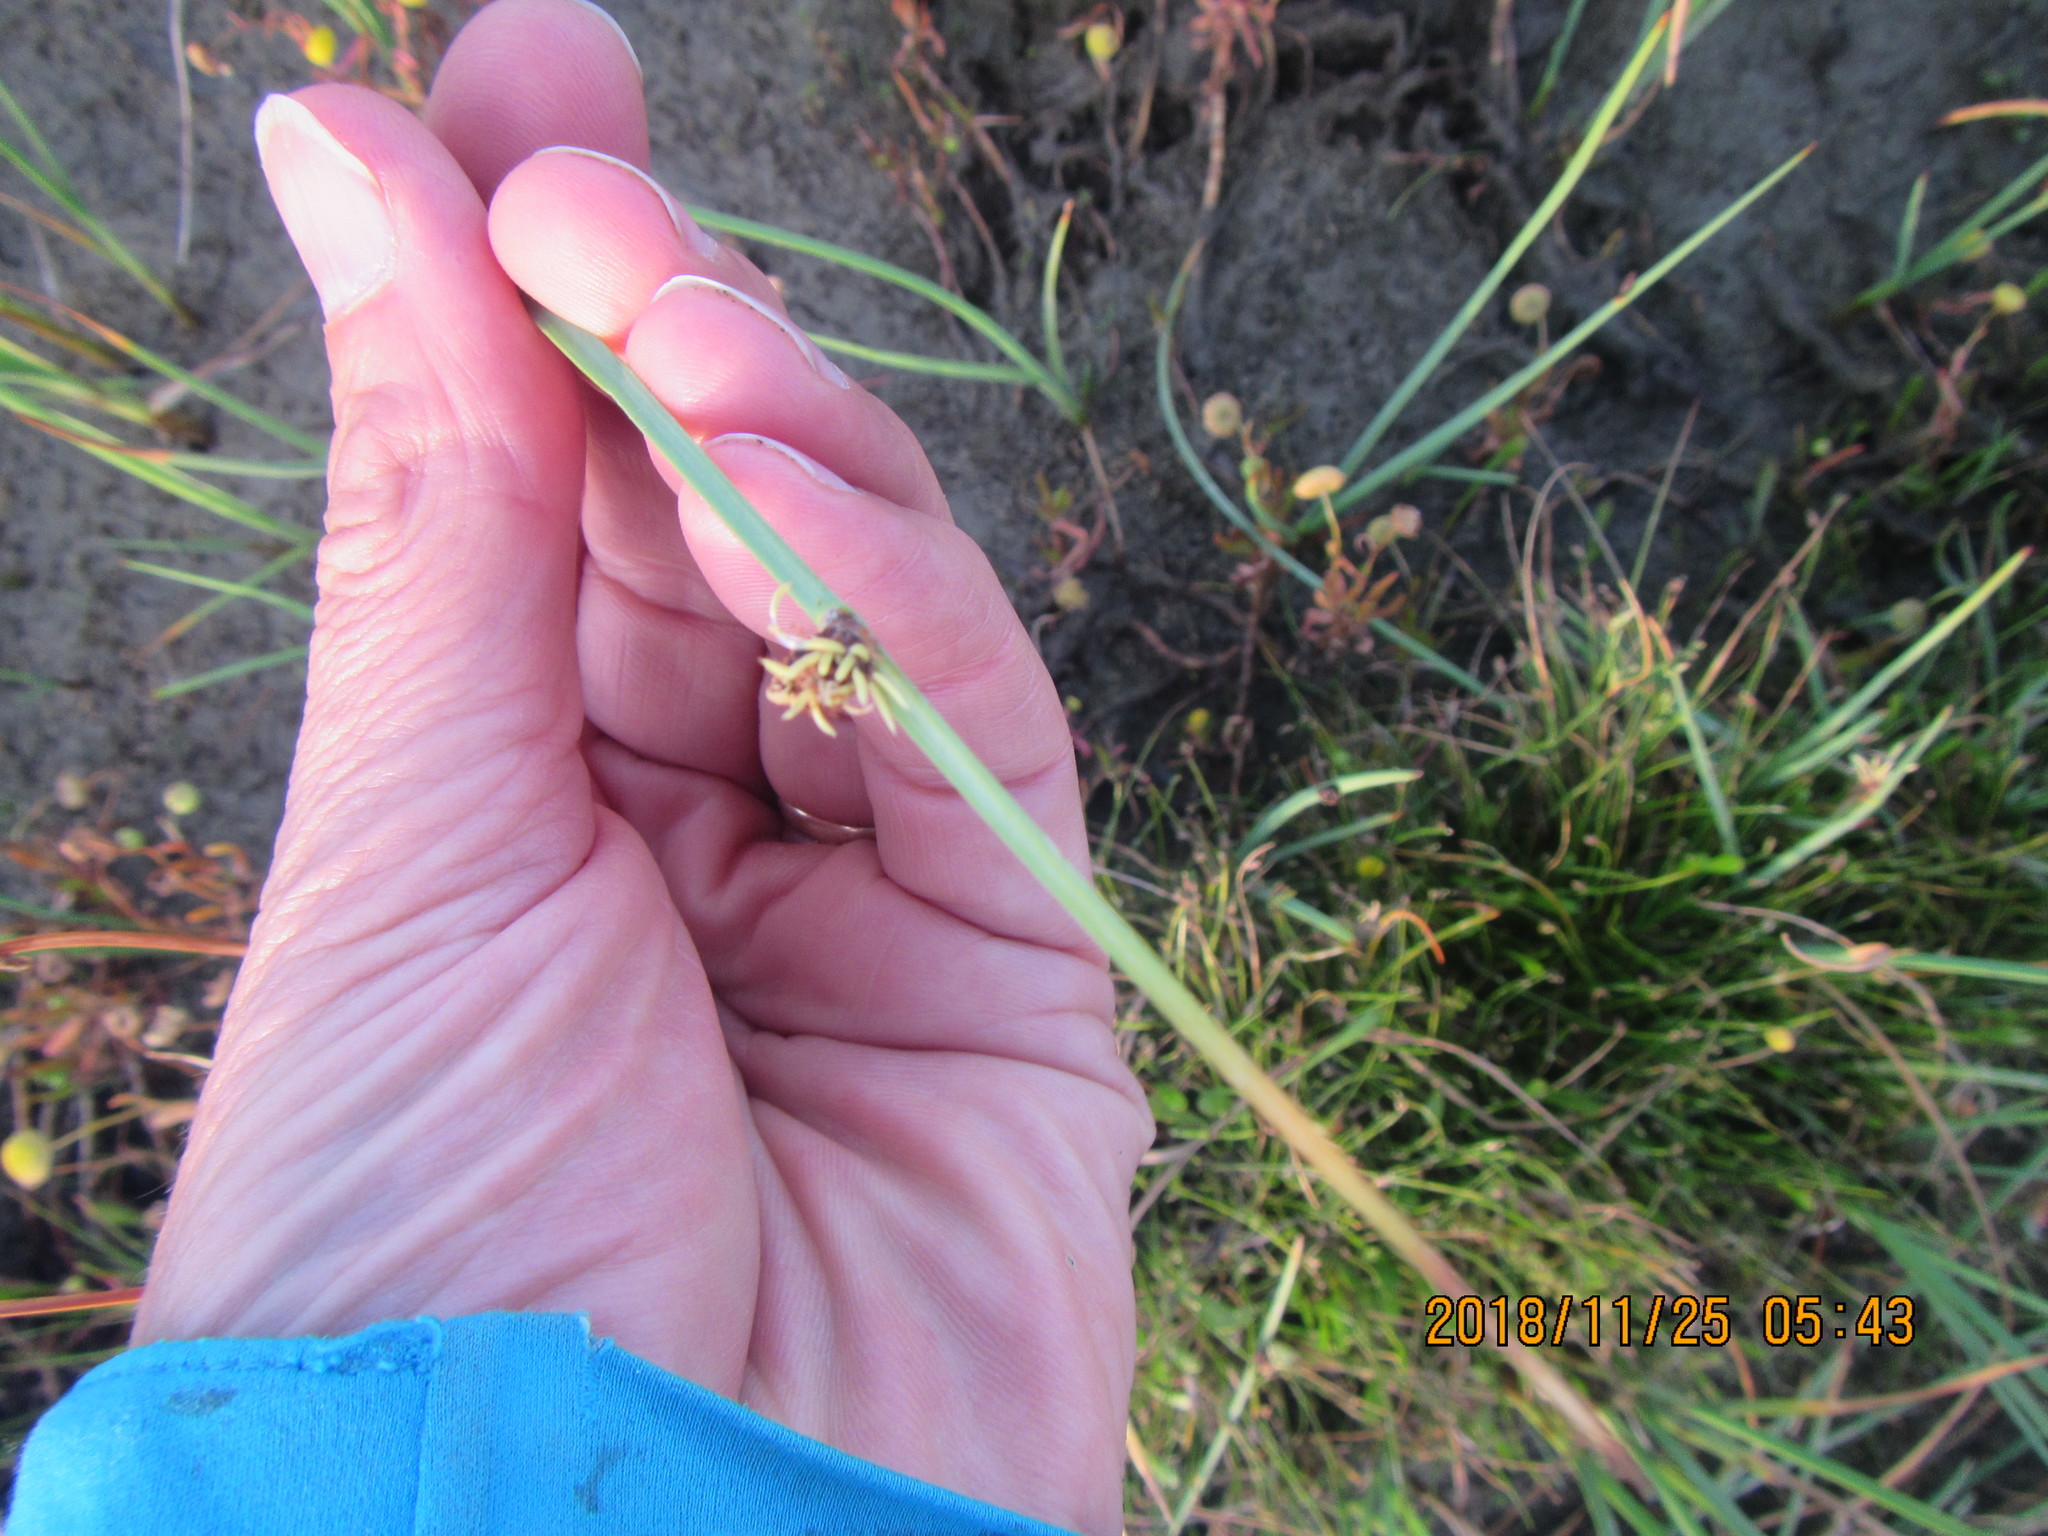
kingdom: Plantae
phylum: Tracheophyta
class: Liliopsida
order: Poales
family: Cyperaceae
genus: Schoenoplectus
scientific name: Schoenoplectus pungens
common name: Sharp club-rush
